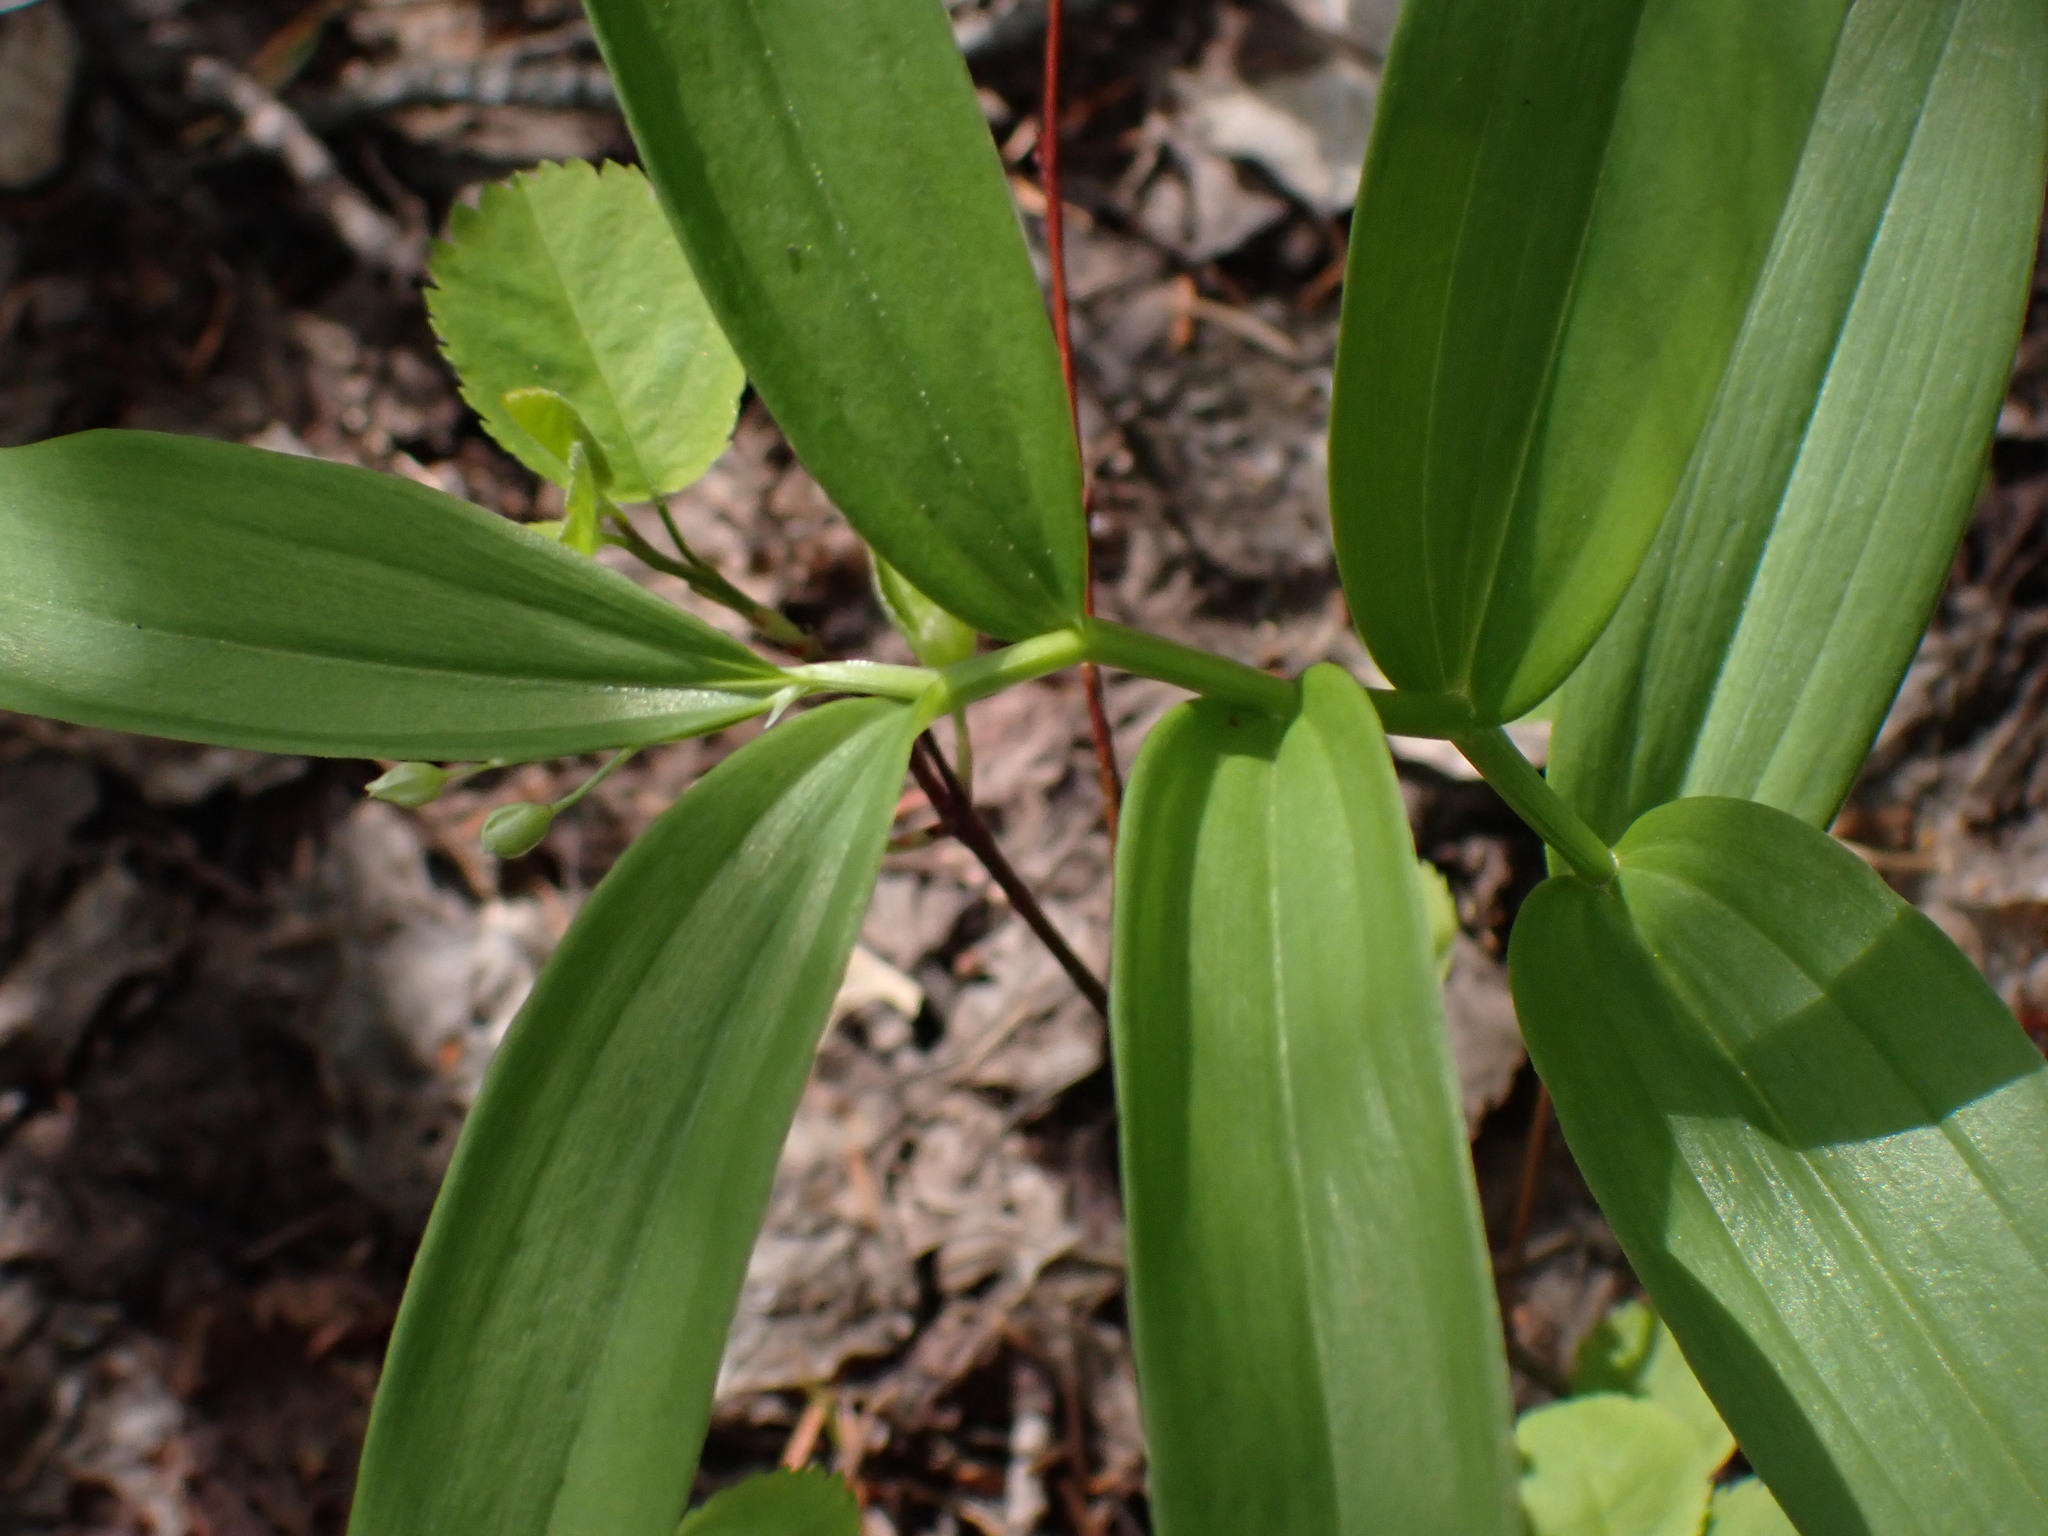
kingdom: Plantae
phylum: Tracheophyta
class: Liliopsida
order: Asparagales
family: Asparagaceae
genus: Maianthemum
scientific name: Maianthemum stellatum
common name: Little false solomon's seal
